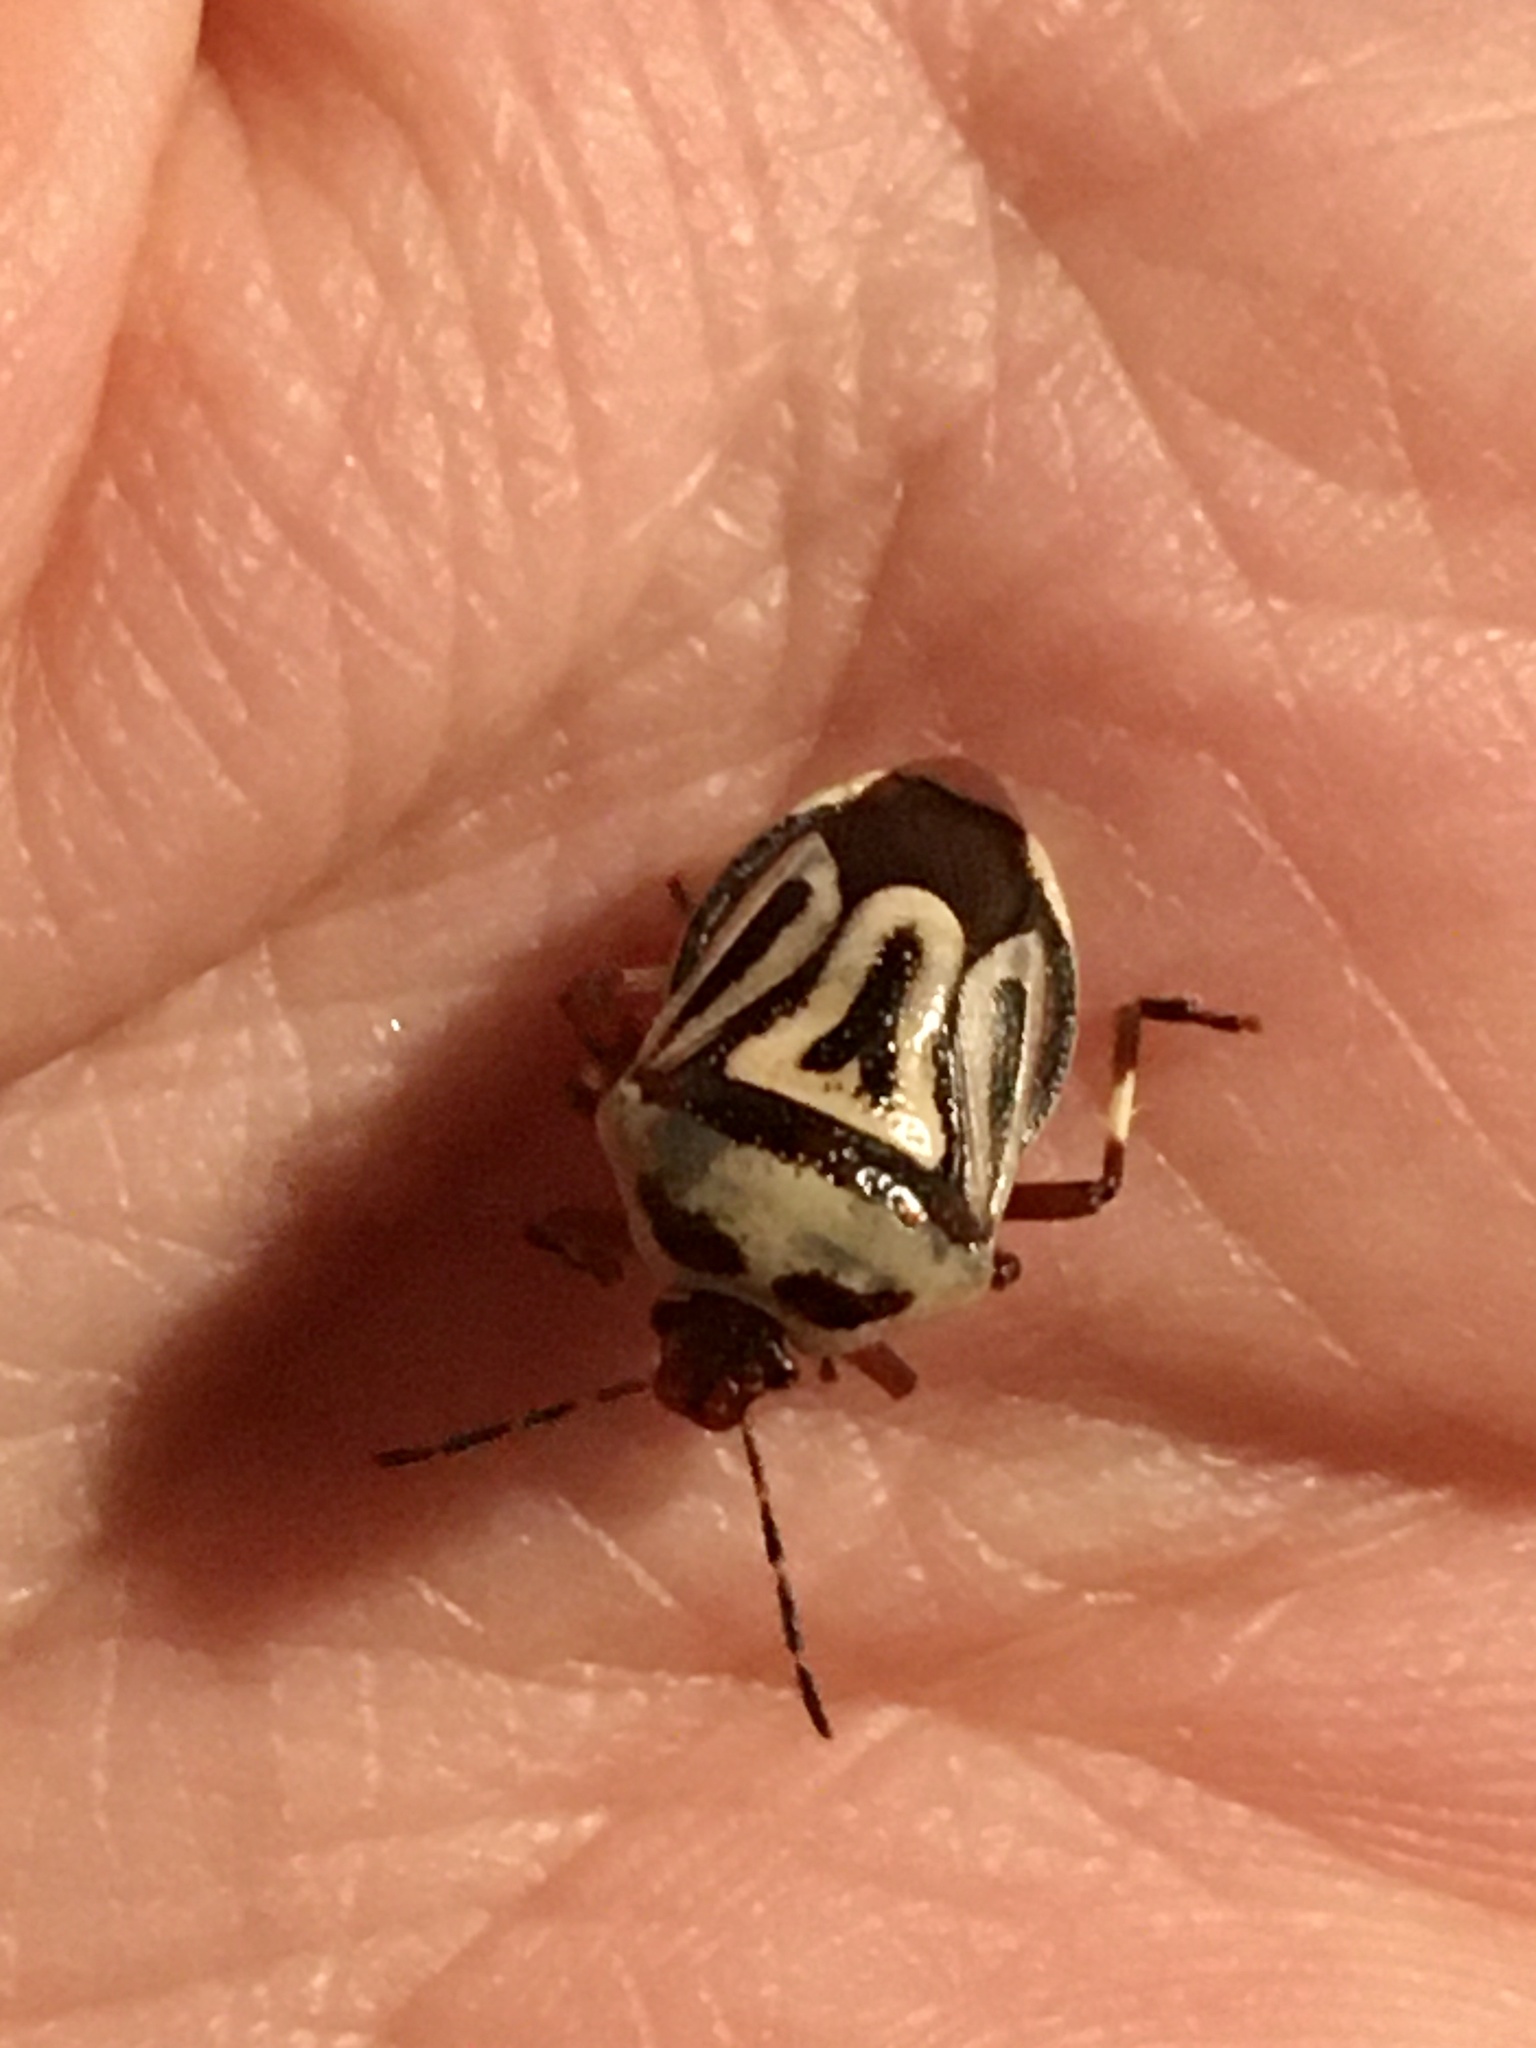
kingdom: Animalia
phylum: Arthropoda
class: Insecta
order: Hemiptera
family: Pentatomidae
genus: Perillus
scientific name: Perillus bioculatus
